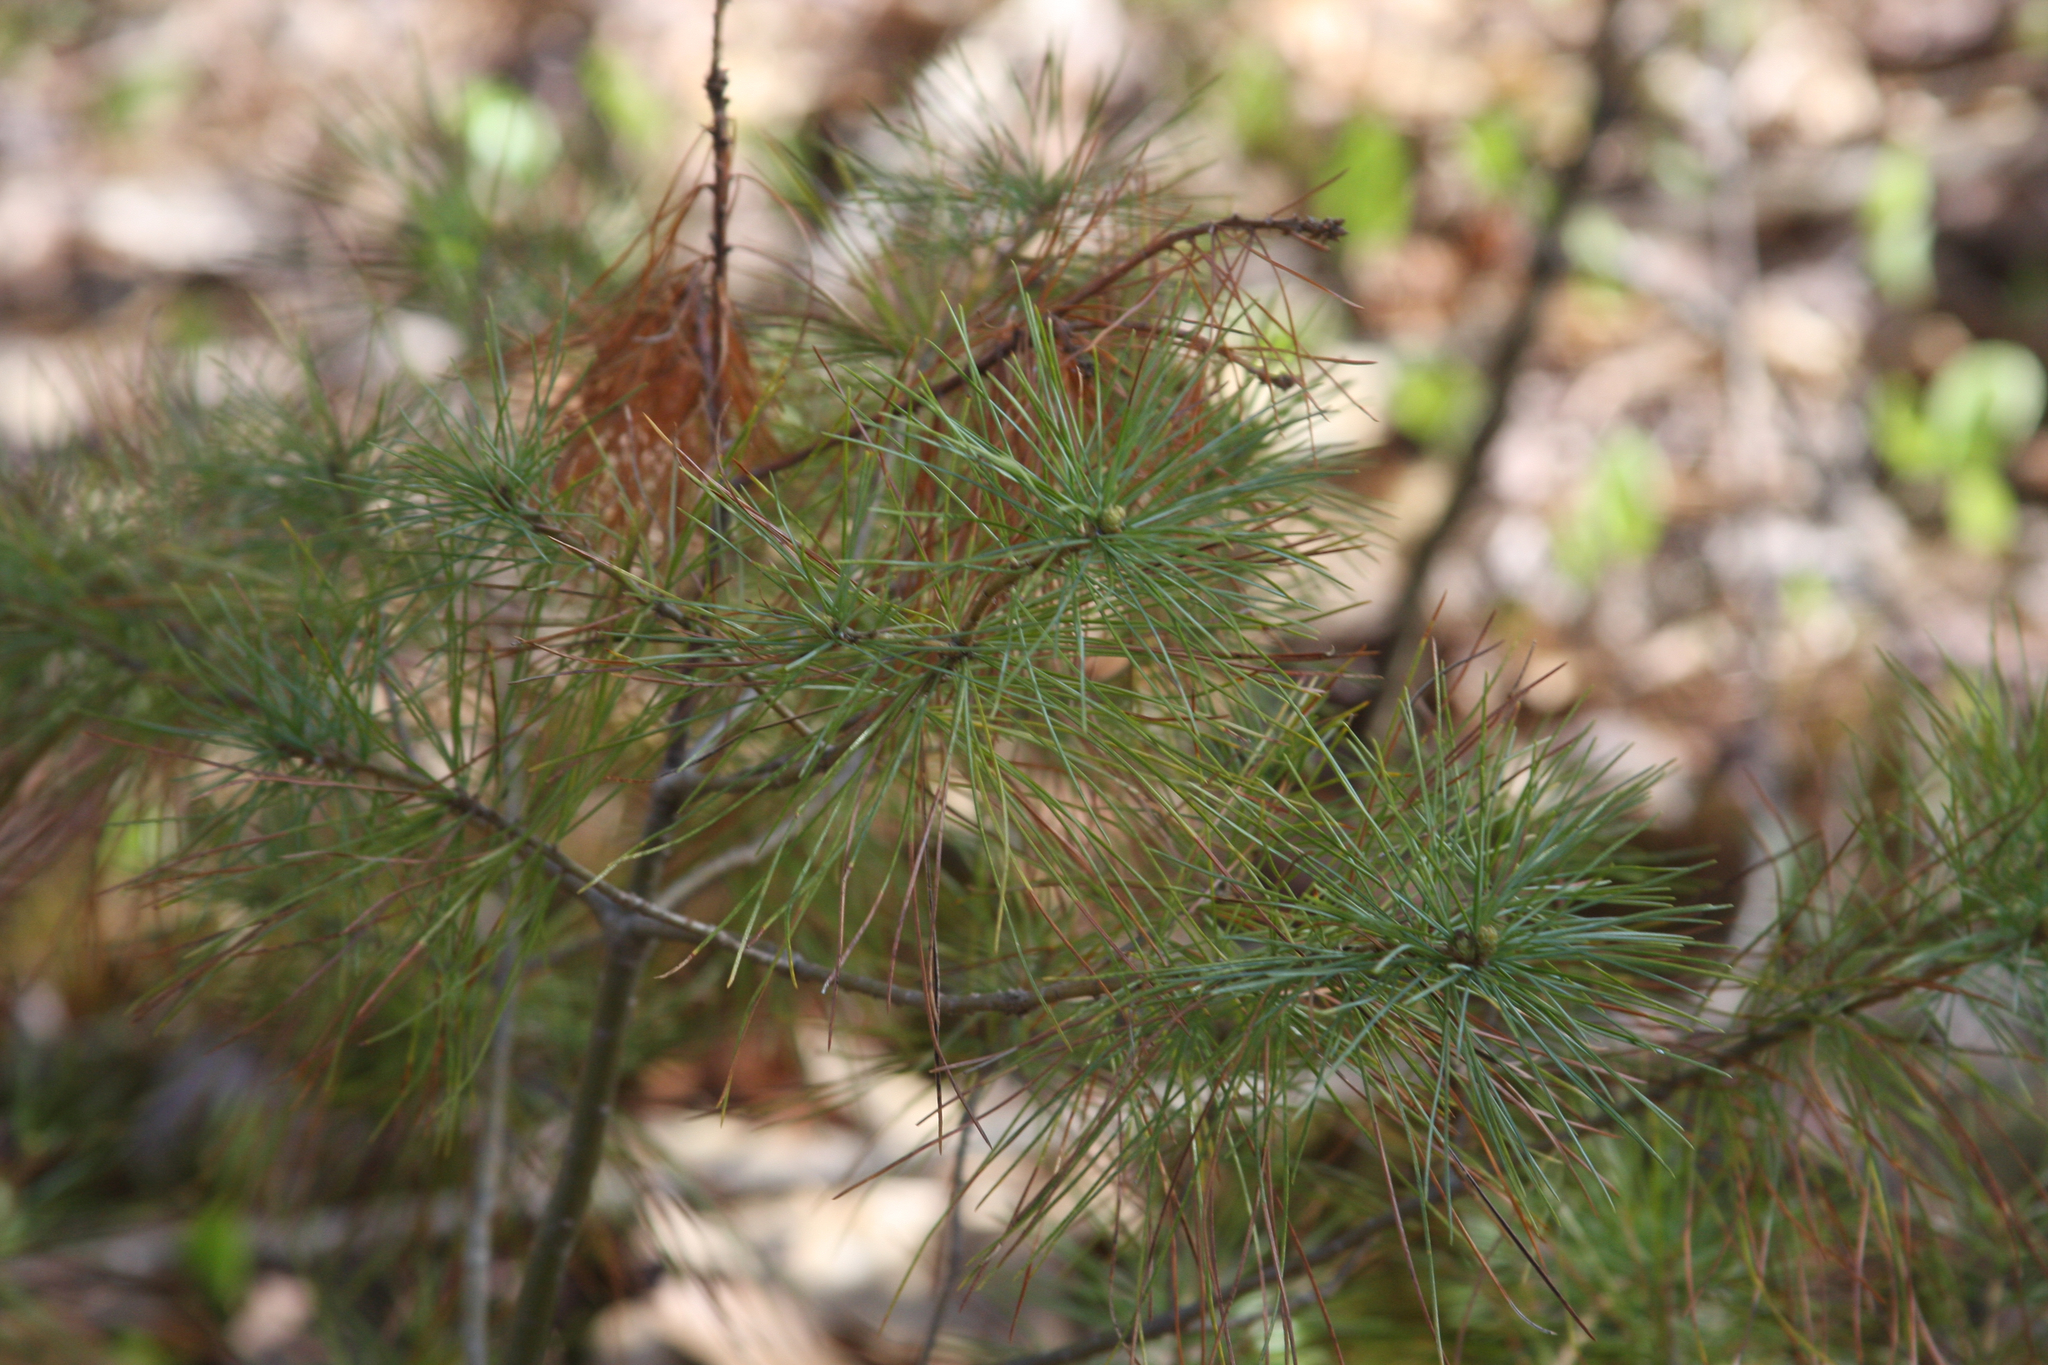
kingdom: Plantae
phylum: Tracheophyta
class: Pinopsida
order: Pinales
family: Pinaceae
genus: Pinus
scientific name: Pinus strobus
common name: Weymouth pine
